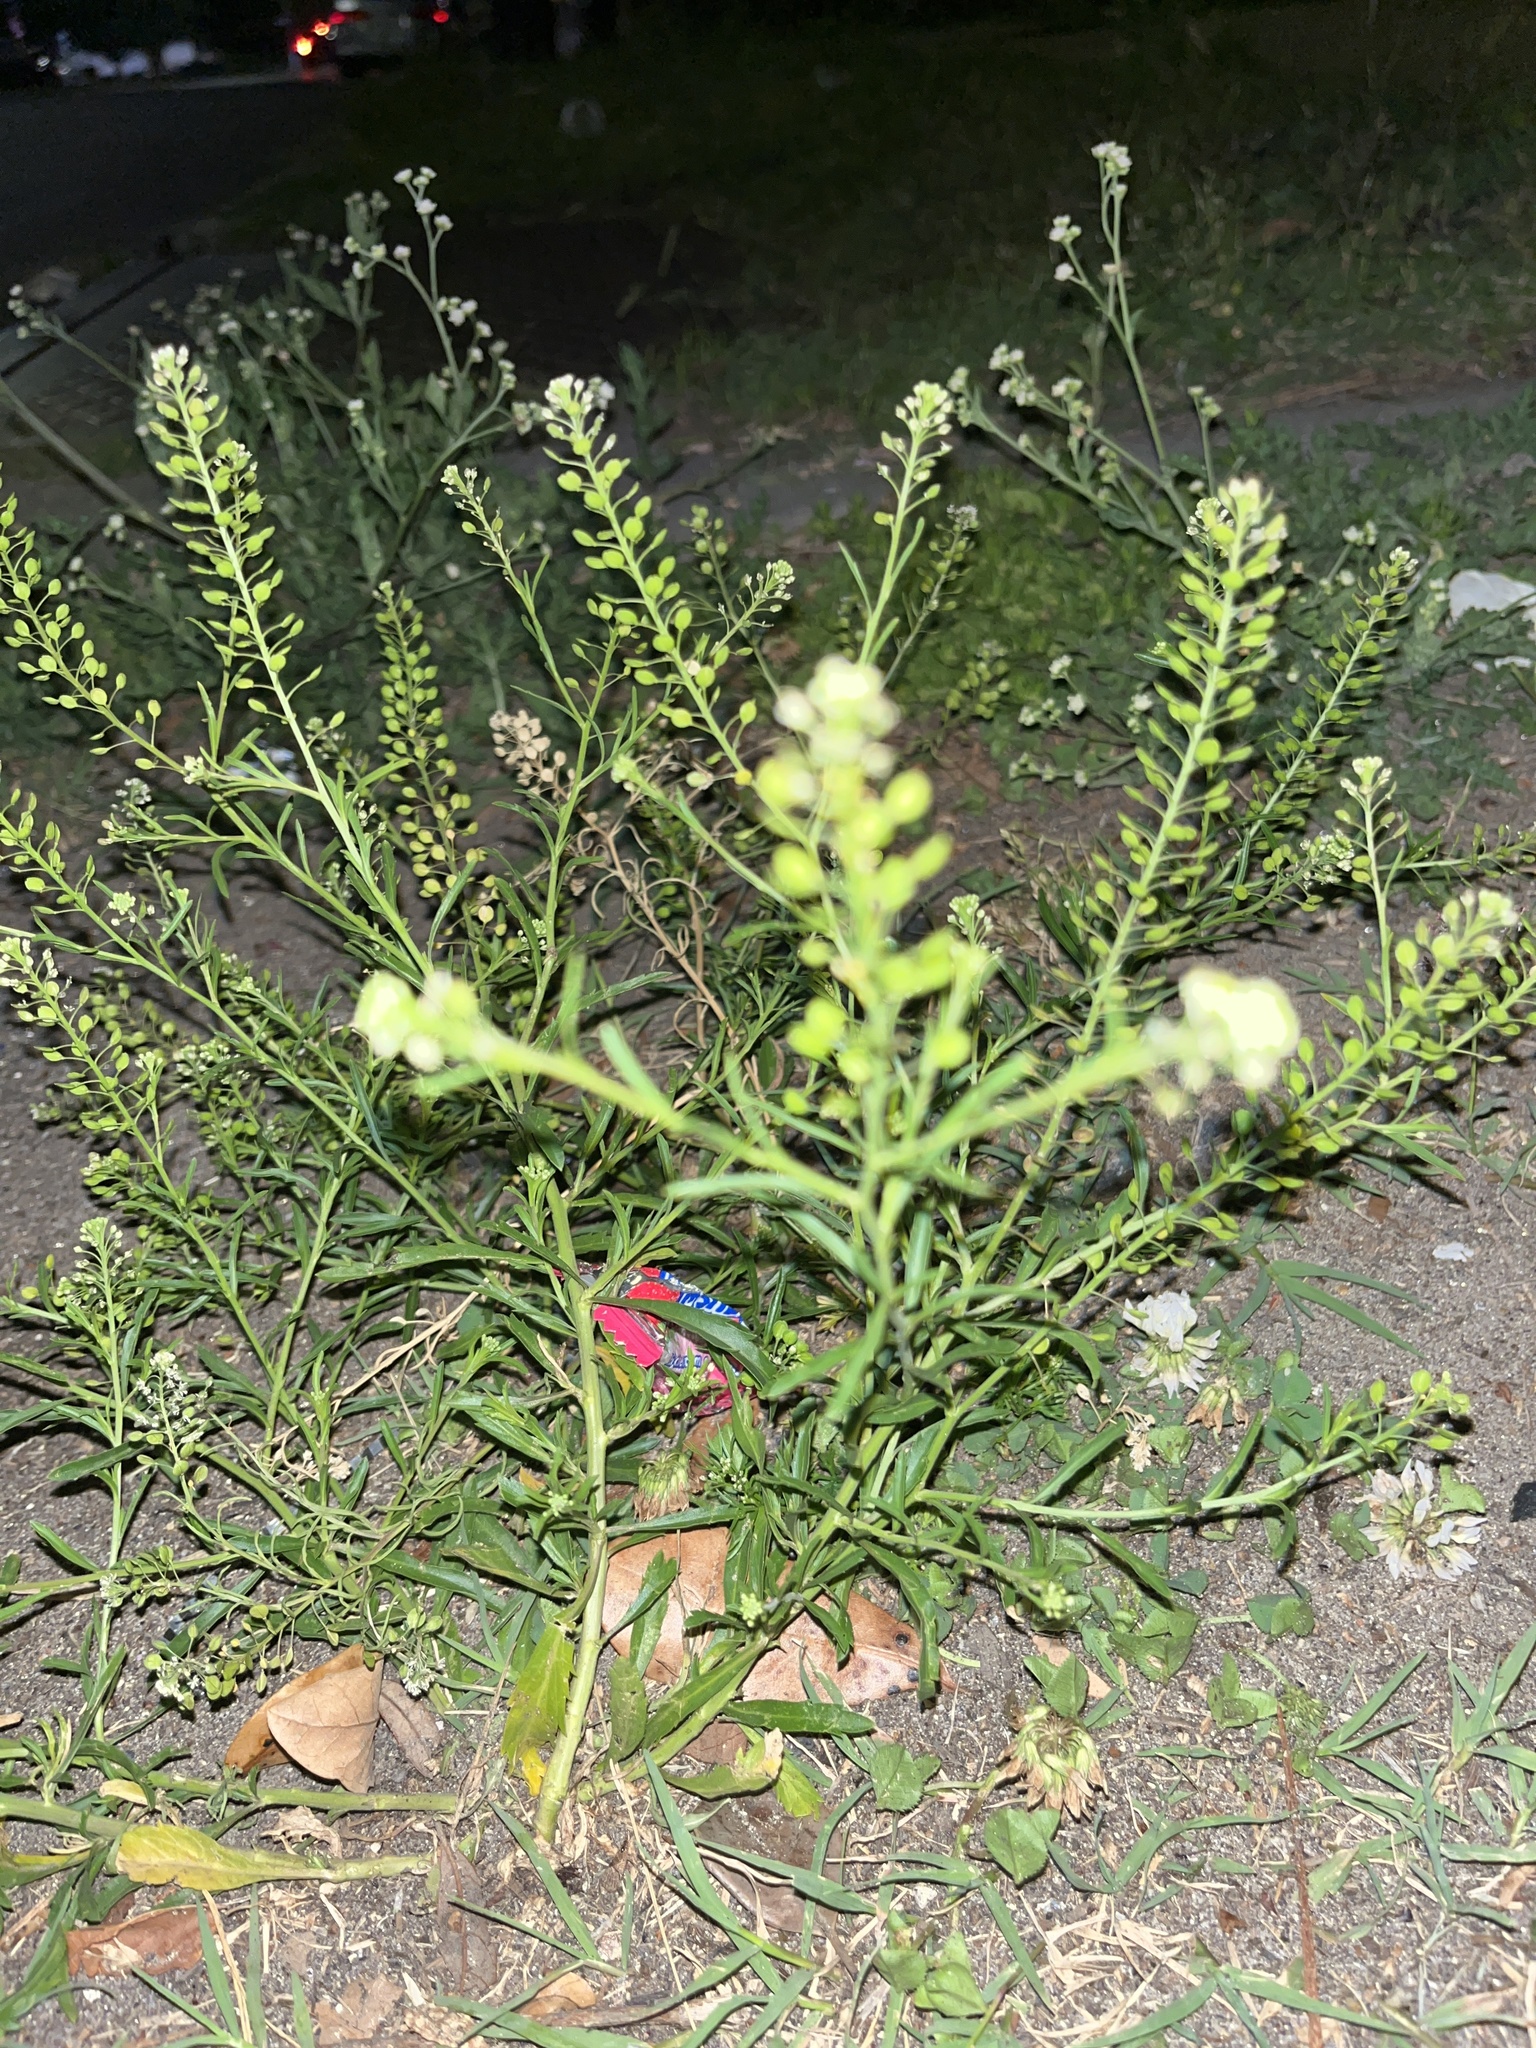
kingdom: Plantae
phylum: Tracheophyta
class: Magnoliopsida
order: Brassicales
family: Brassicaceae
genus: Lepidium
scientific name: Lepidium virginicum
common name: Least pepperwort
